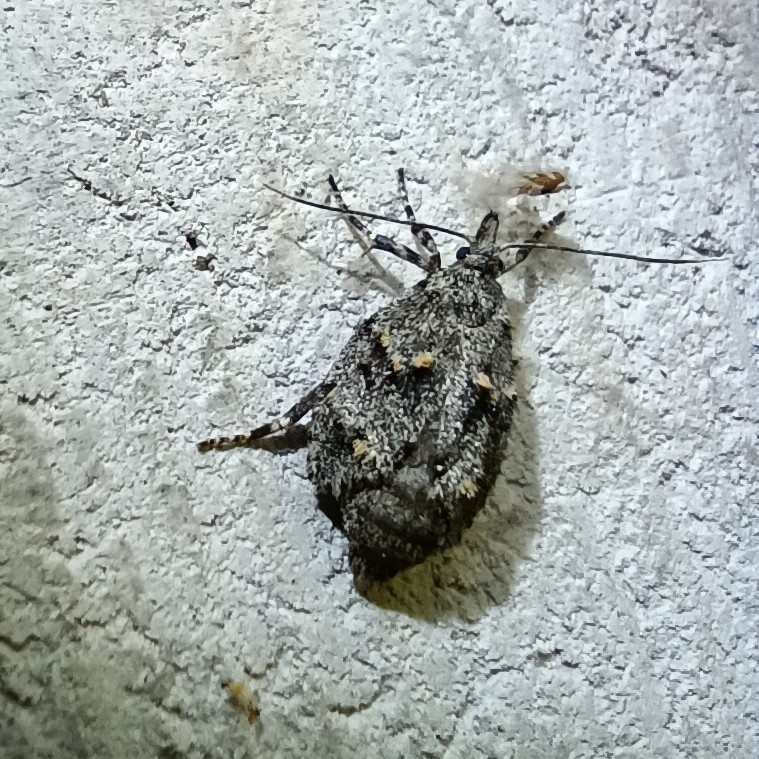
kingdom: Animalia
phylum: Arthropoda
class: Insecta
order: Lepidoptera
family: Lypusidae
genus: Diurnea
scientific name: Diurnea fagella
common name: March tubic
